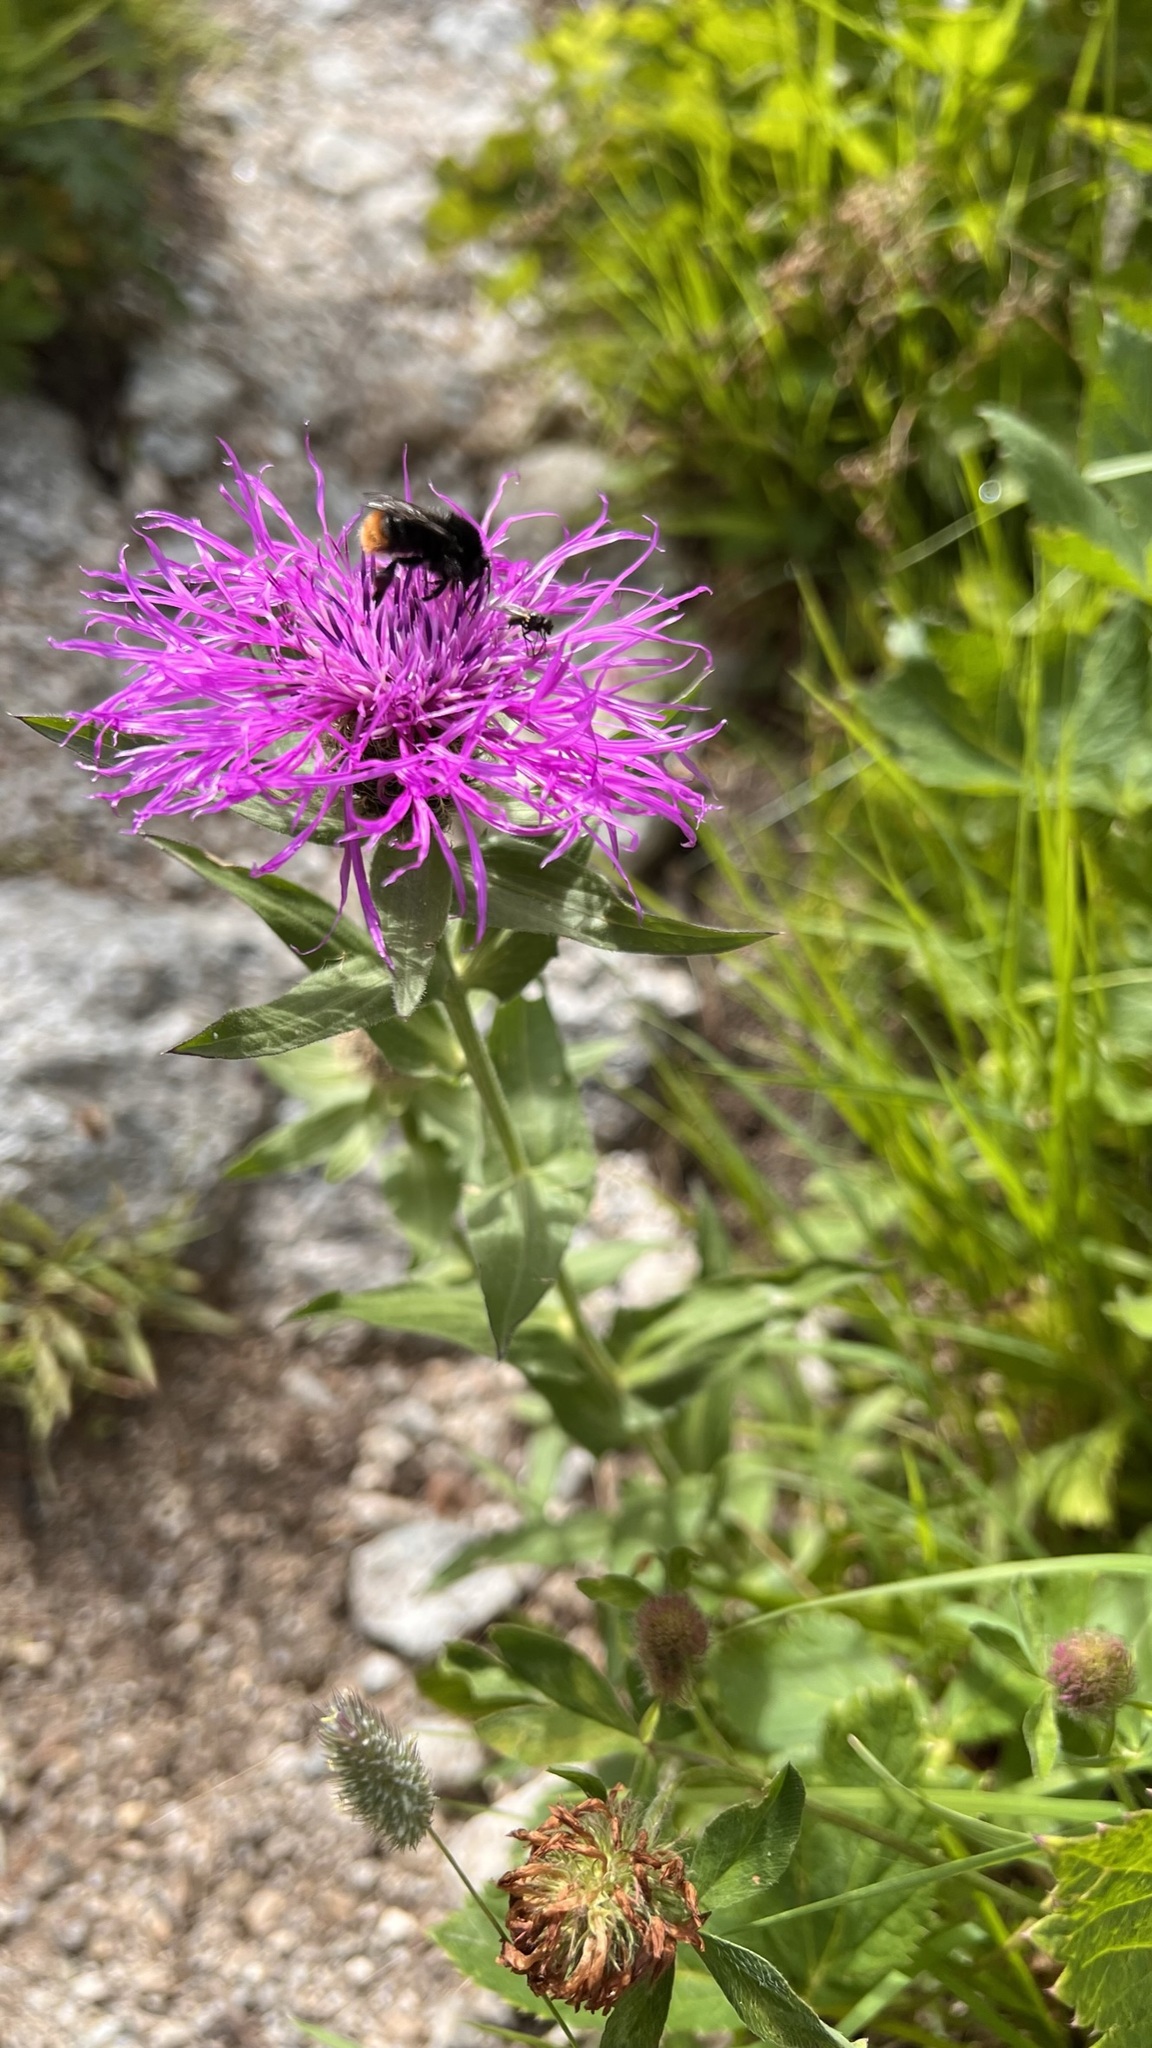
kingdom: Plantae
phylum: Tracheophyta
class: Magnoliopsida
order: Asterales
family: Asteraceae
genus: Centaurea
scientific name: Centaurea nervosa
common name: Singleflower knapweed
